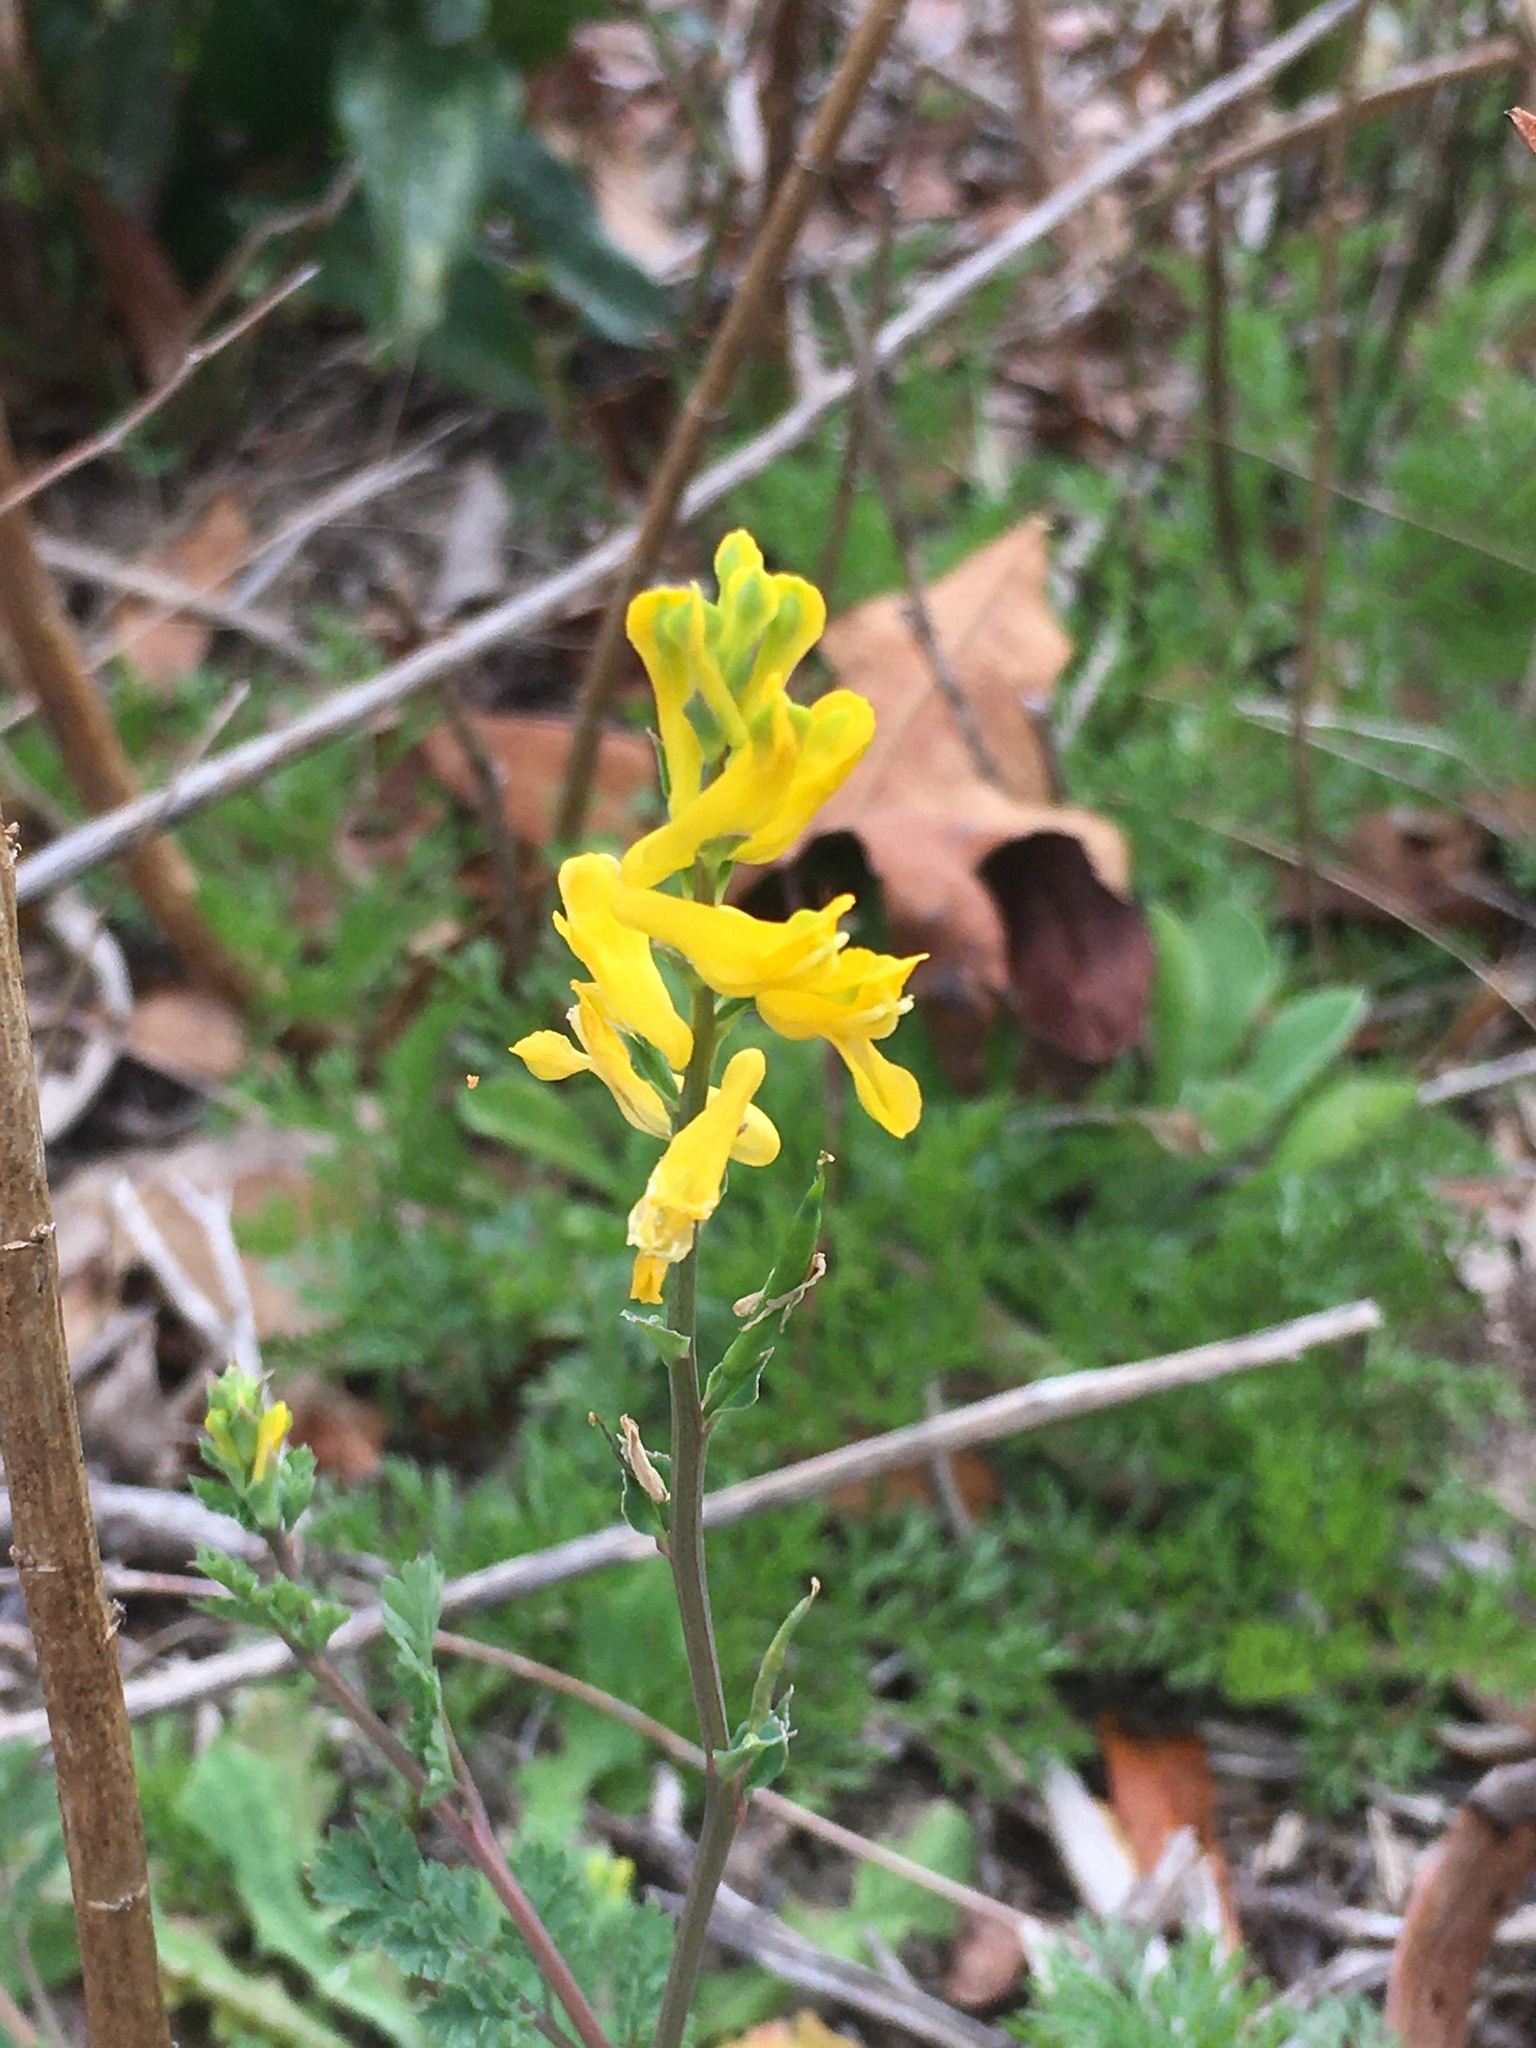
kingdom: Plantae
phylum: Tracheophyta
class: Magnoliopsida
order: Ranunculales
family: Papaveraceae
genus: Corydalis
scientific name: Corydalis micrantha
